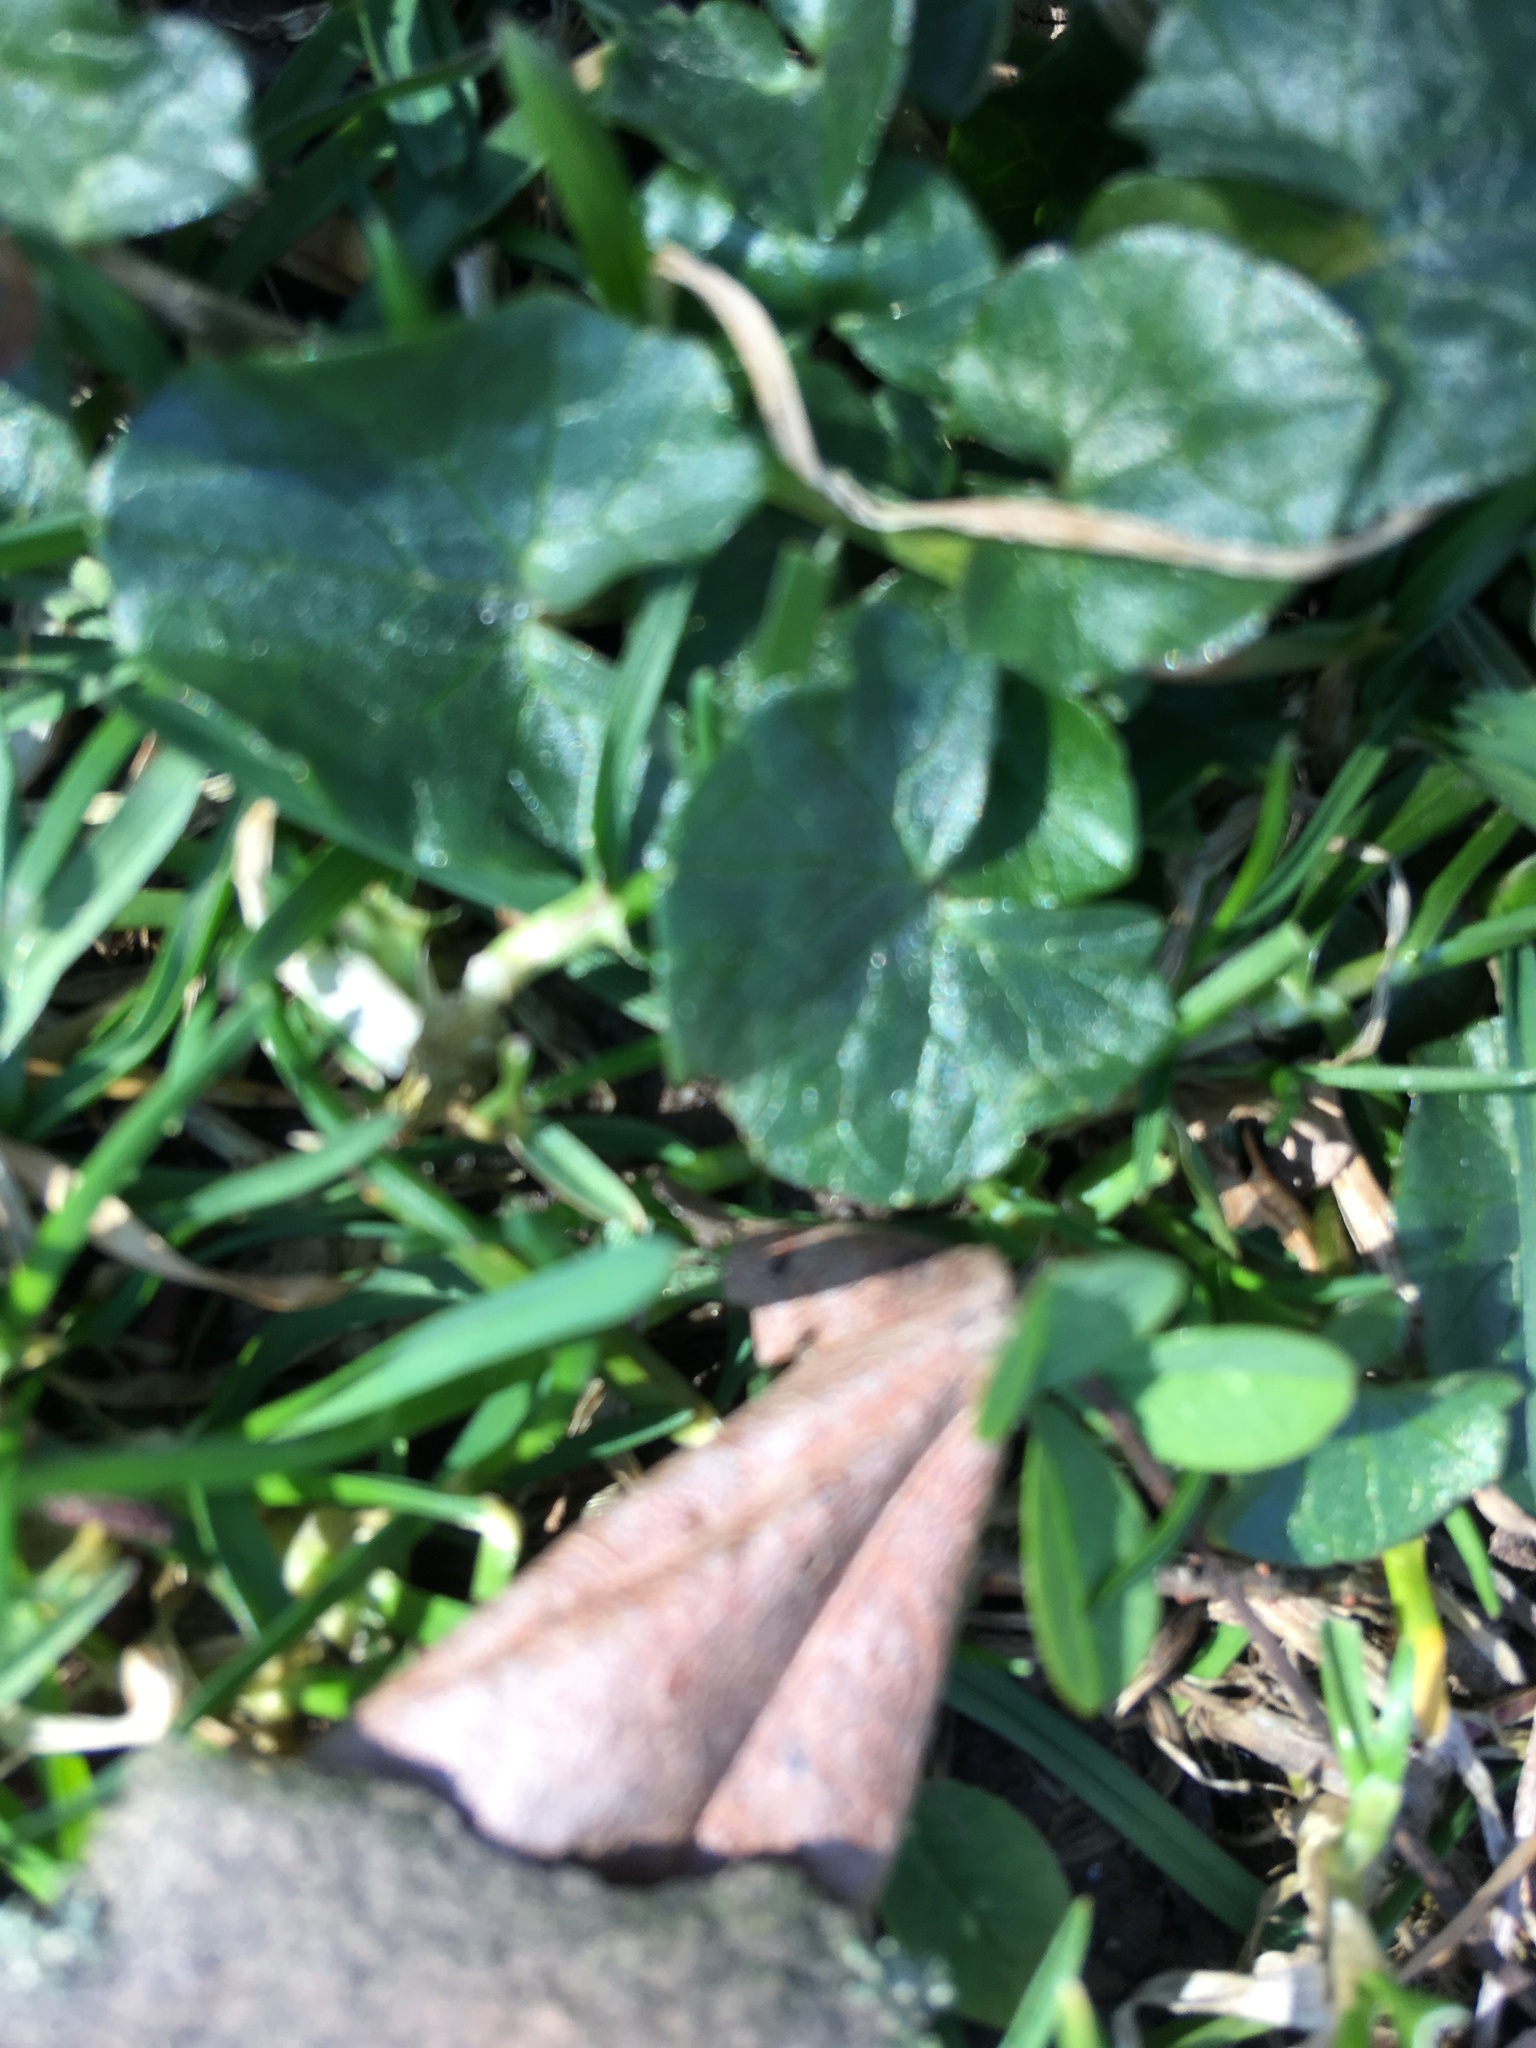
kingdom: Plantae
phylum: Tracheophyta
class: Magnoliopsida
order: Ranunculales
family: Ranunculaceae
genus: Ficaria
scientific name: Ficaria verna
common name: Lesser celandine
